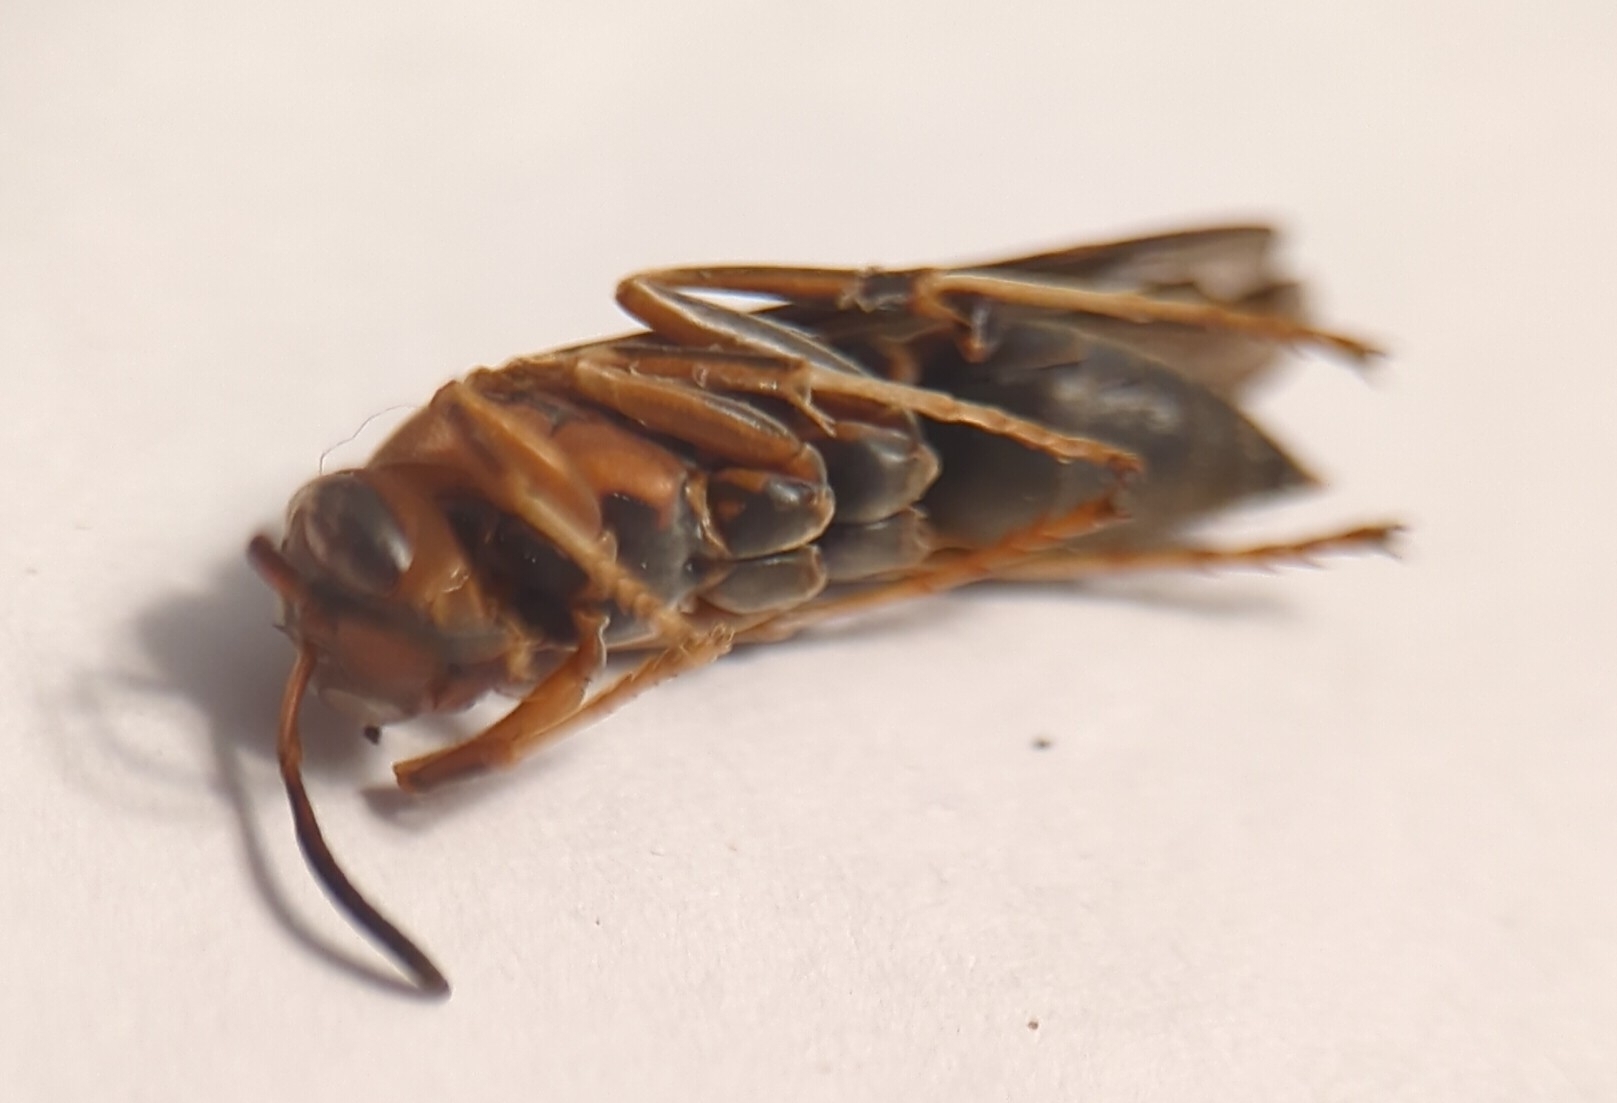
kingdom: Animalia
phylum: Arthropoda
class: Insecta
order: Hymenoptera
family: Eumenidae
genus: Polistes
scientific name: Polistes metricus
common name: Metric paper wasp
